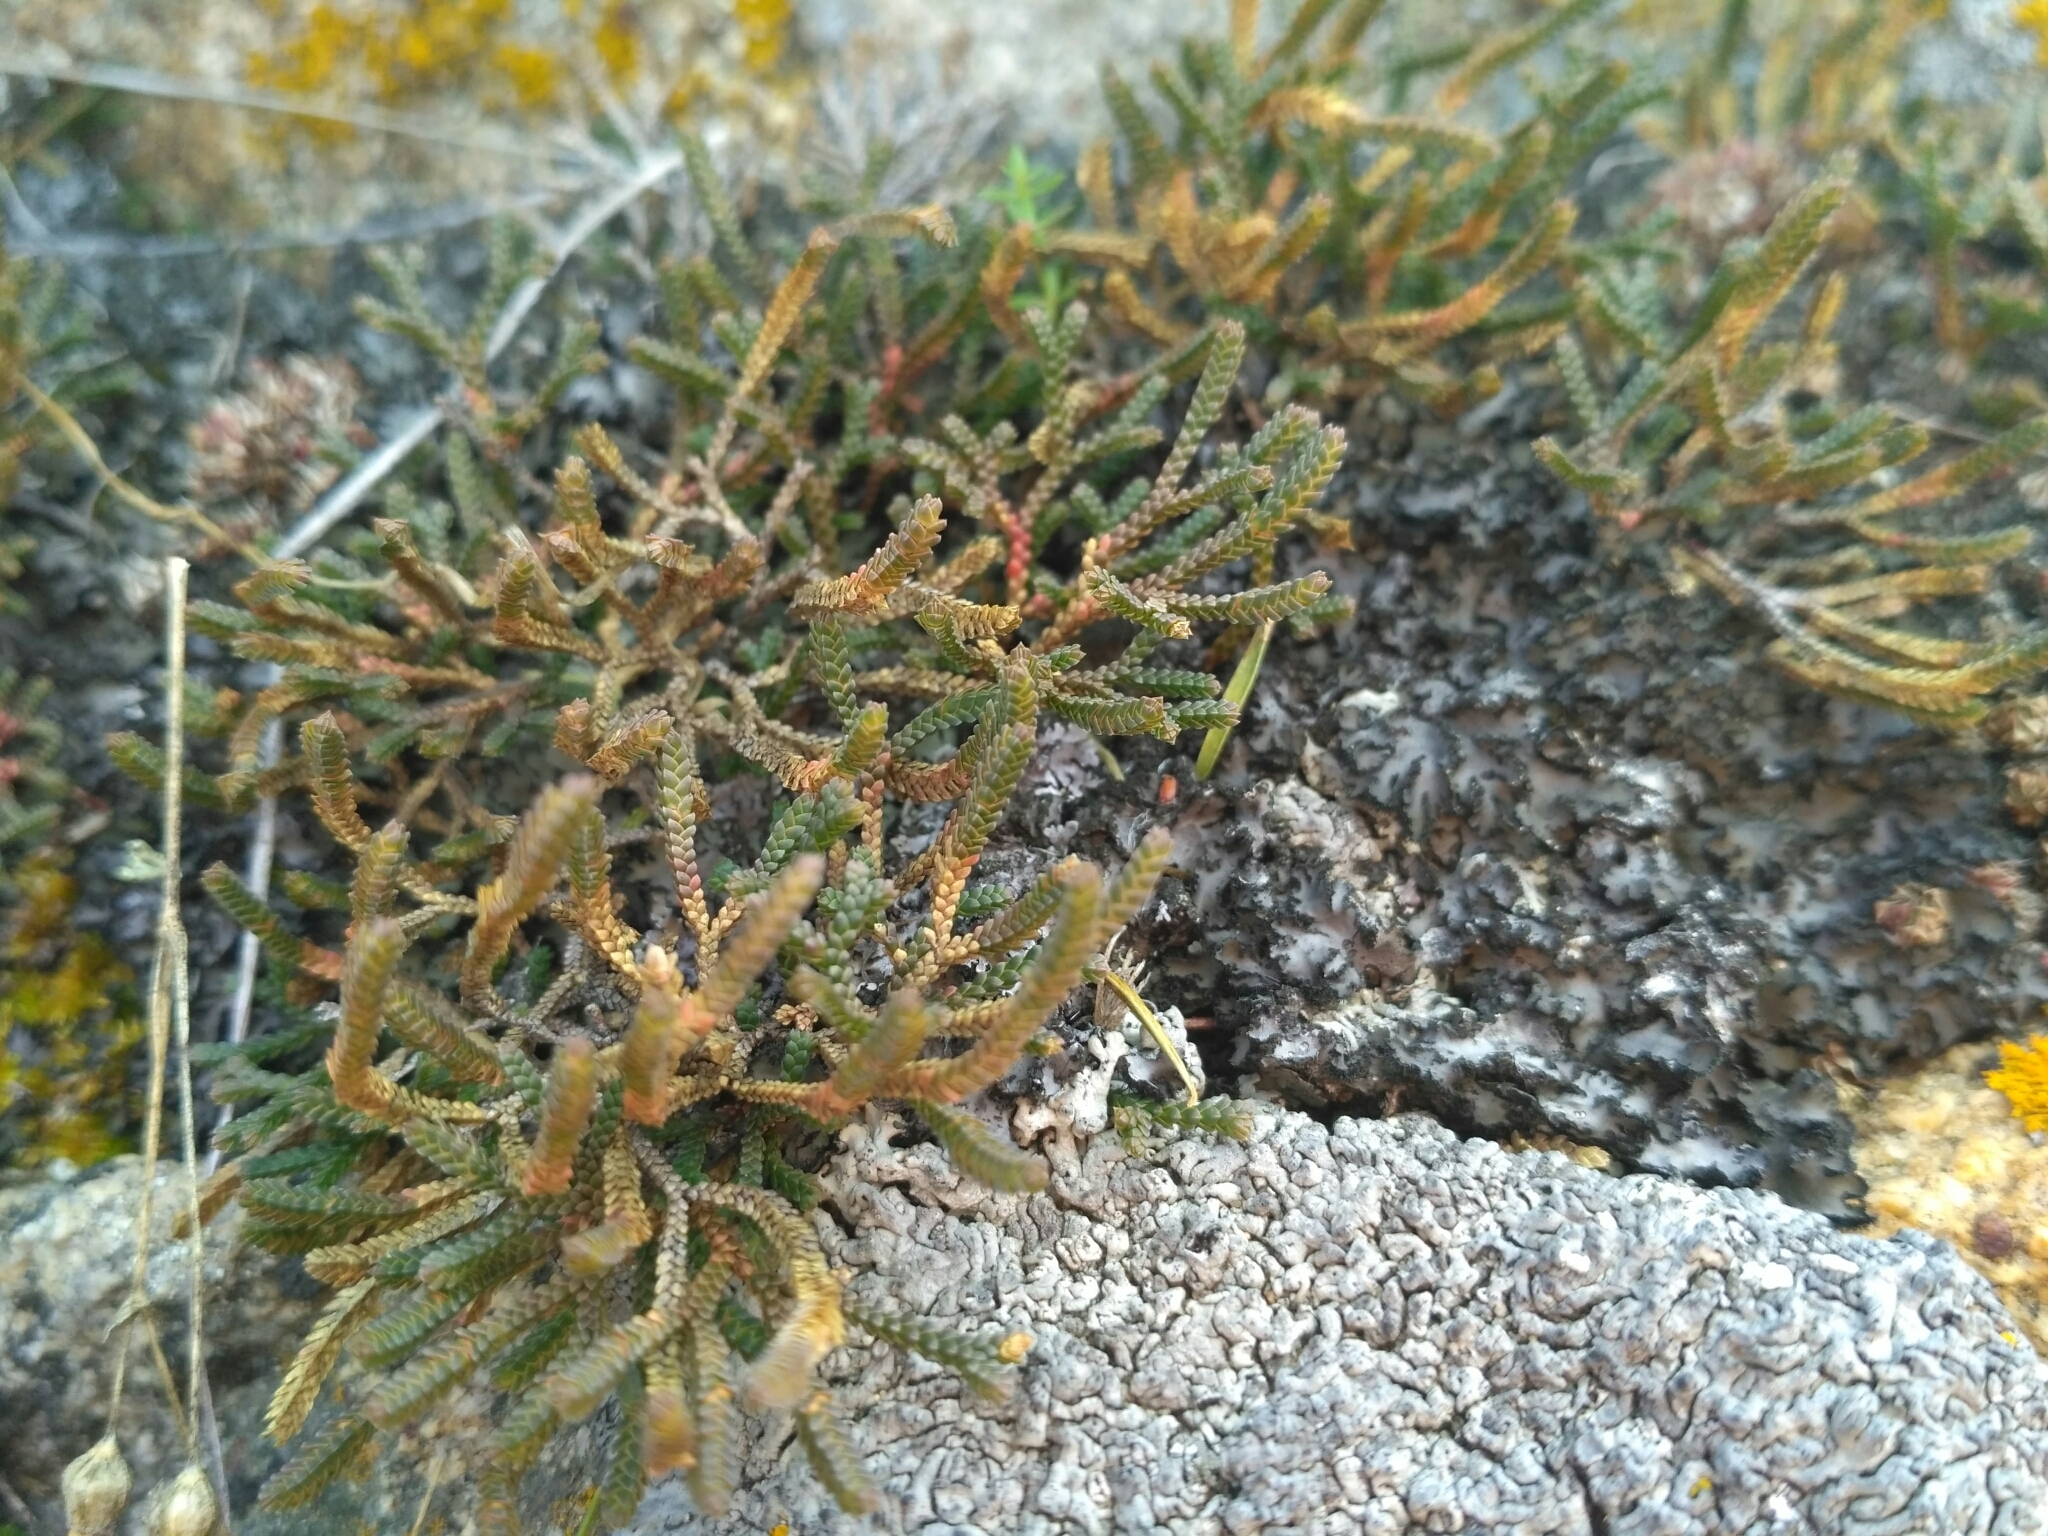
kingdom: Plantae
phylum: Tracheophyta
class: Lycopodiopsida
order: Selaginellales
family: Selaginellaceae
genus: Selaginella
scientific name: Selaginella sanguinolenta
